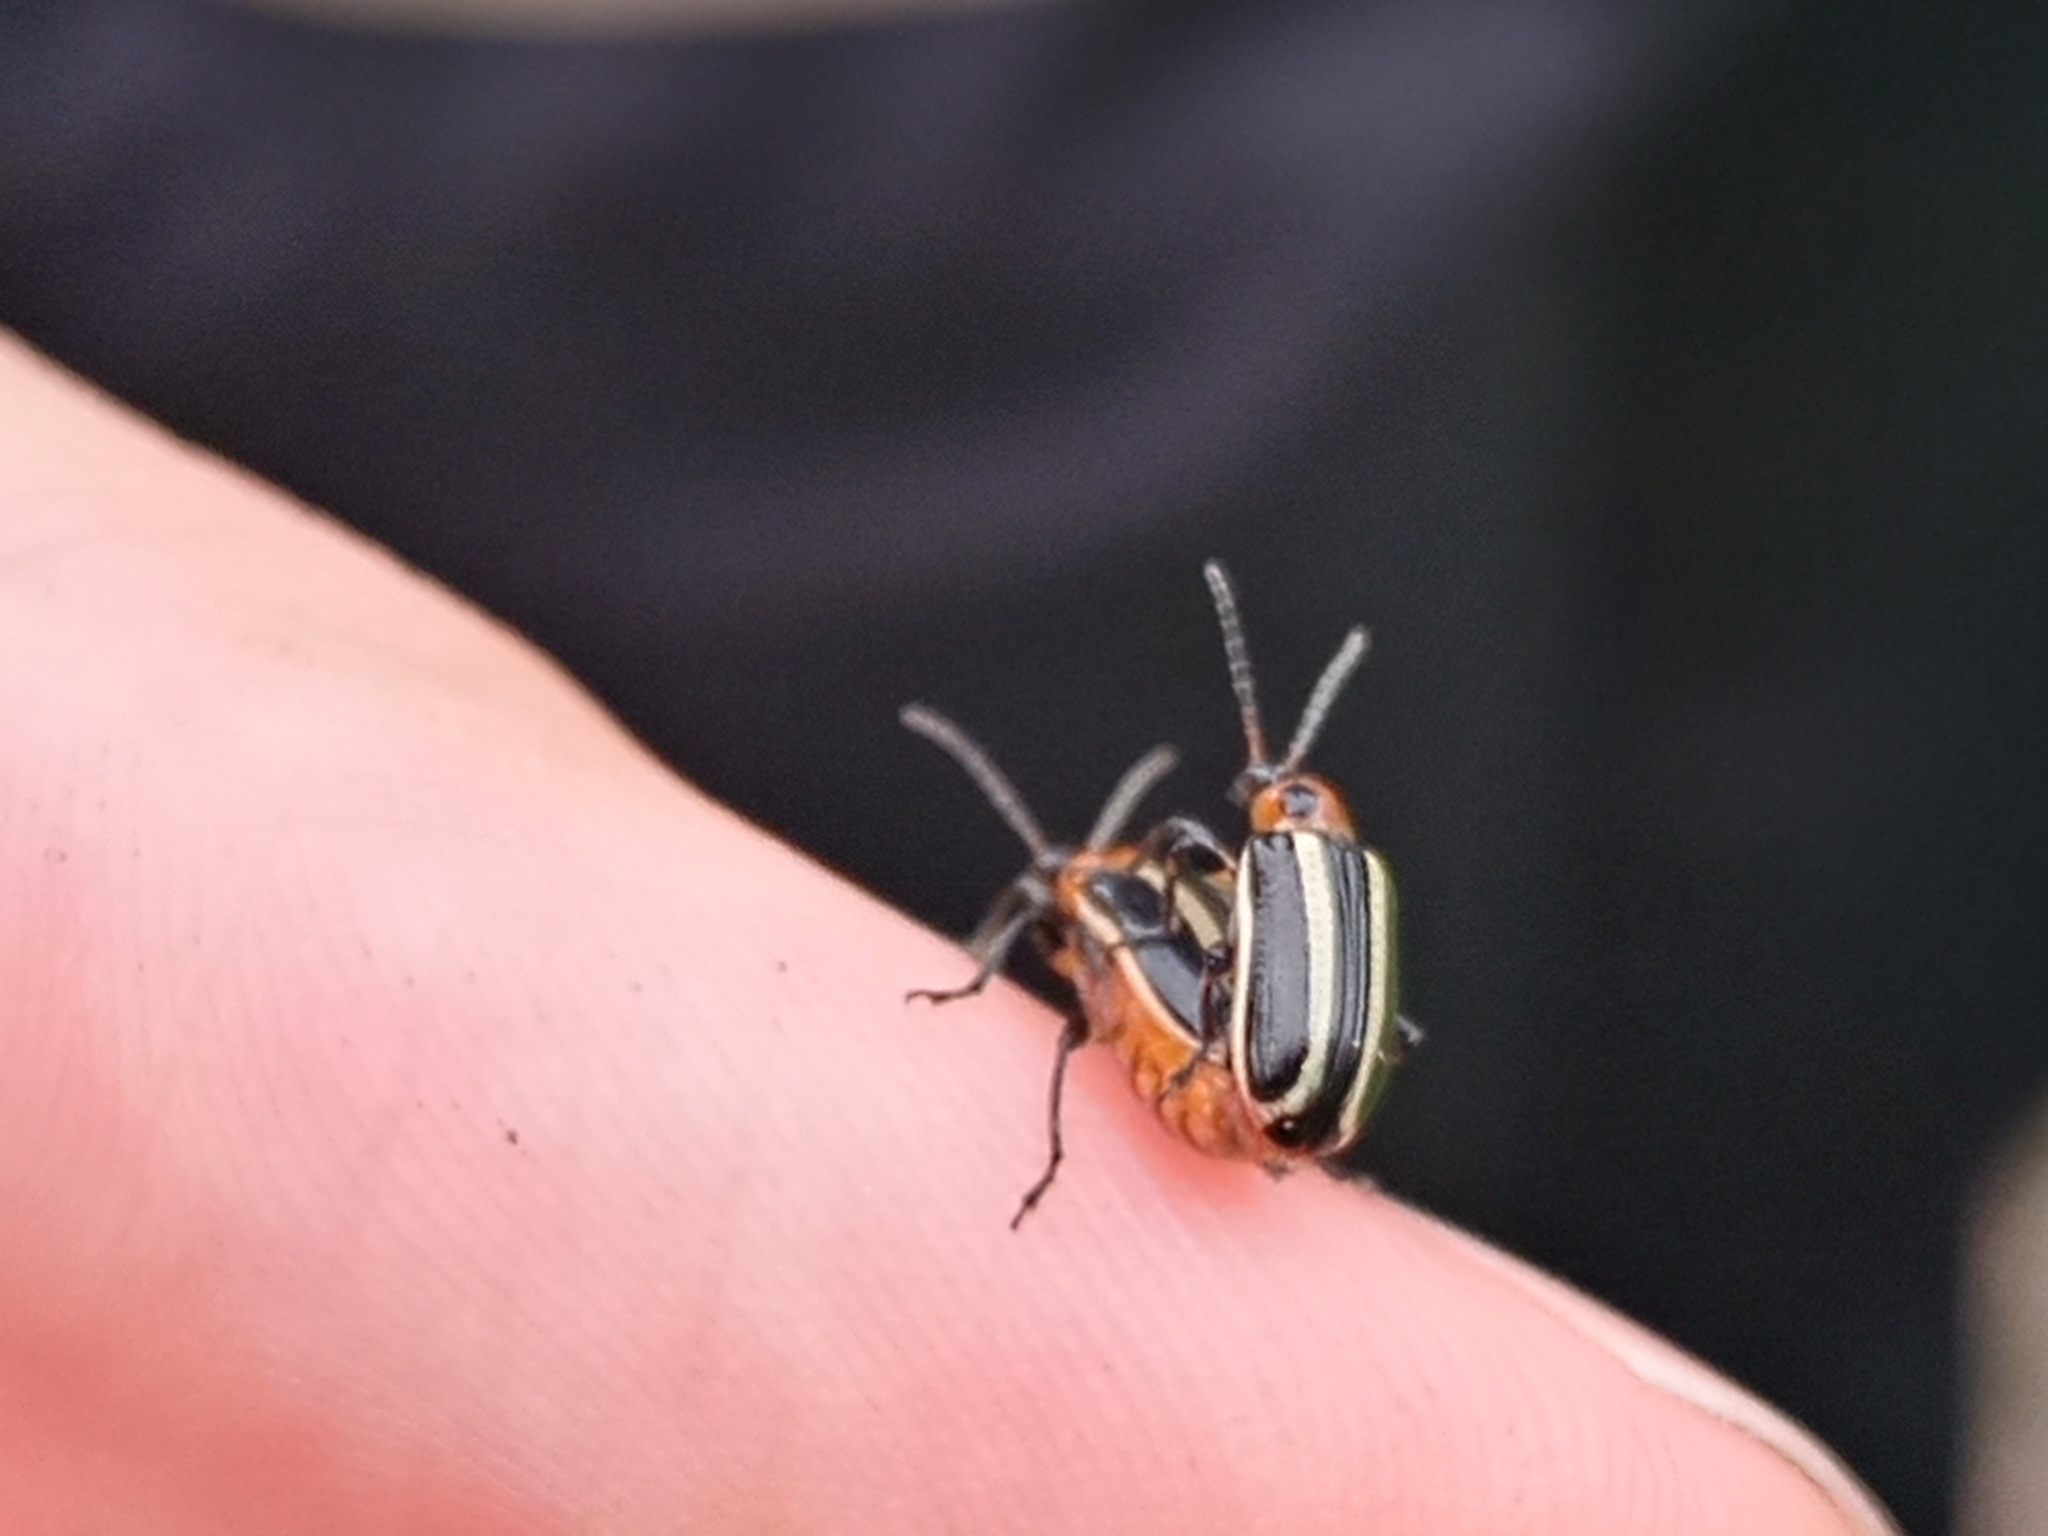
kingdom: Animalia
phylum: Arthropoda
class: Insecta
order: Coleoptera
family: Chrysomelidae
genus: Lema
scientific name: Lema bilineata
